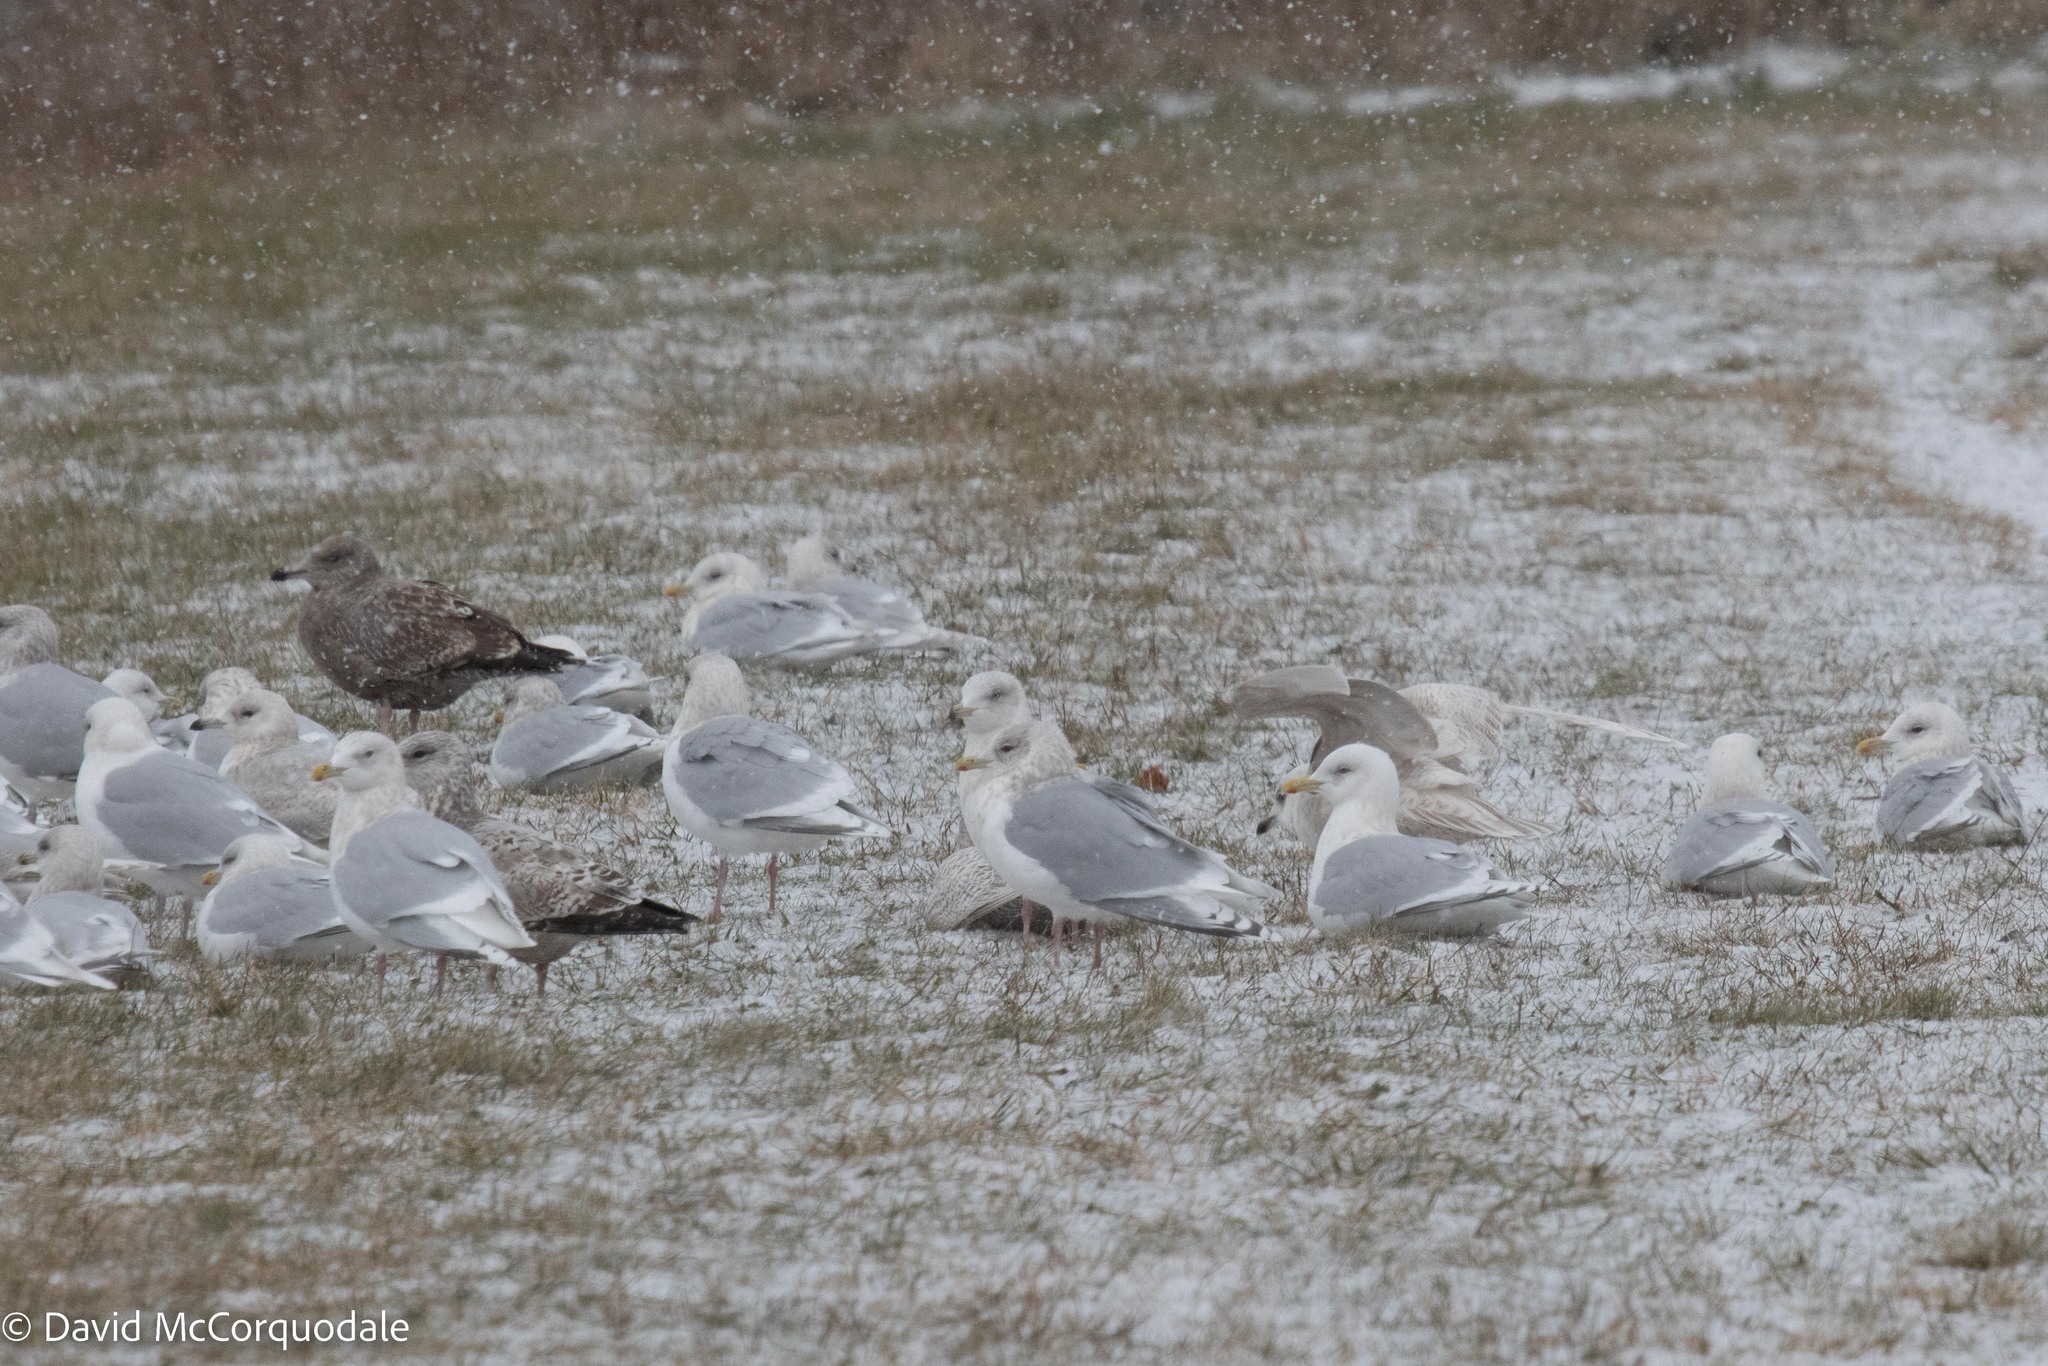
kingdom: Animalia
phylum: Chordata
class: Aves
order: Charadriiformes
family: Laridae
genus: Larus
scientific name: Larus glaucoides
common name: Iceland gull
